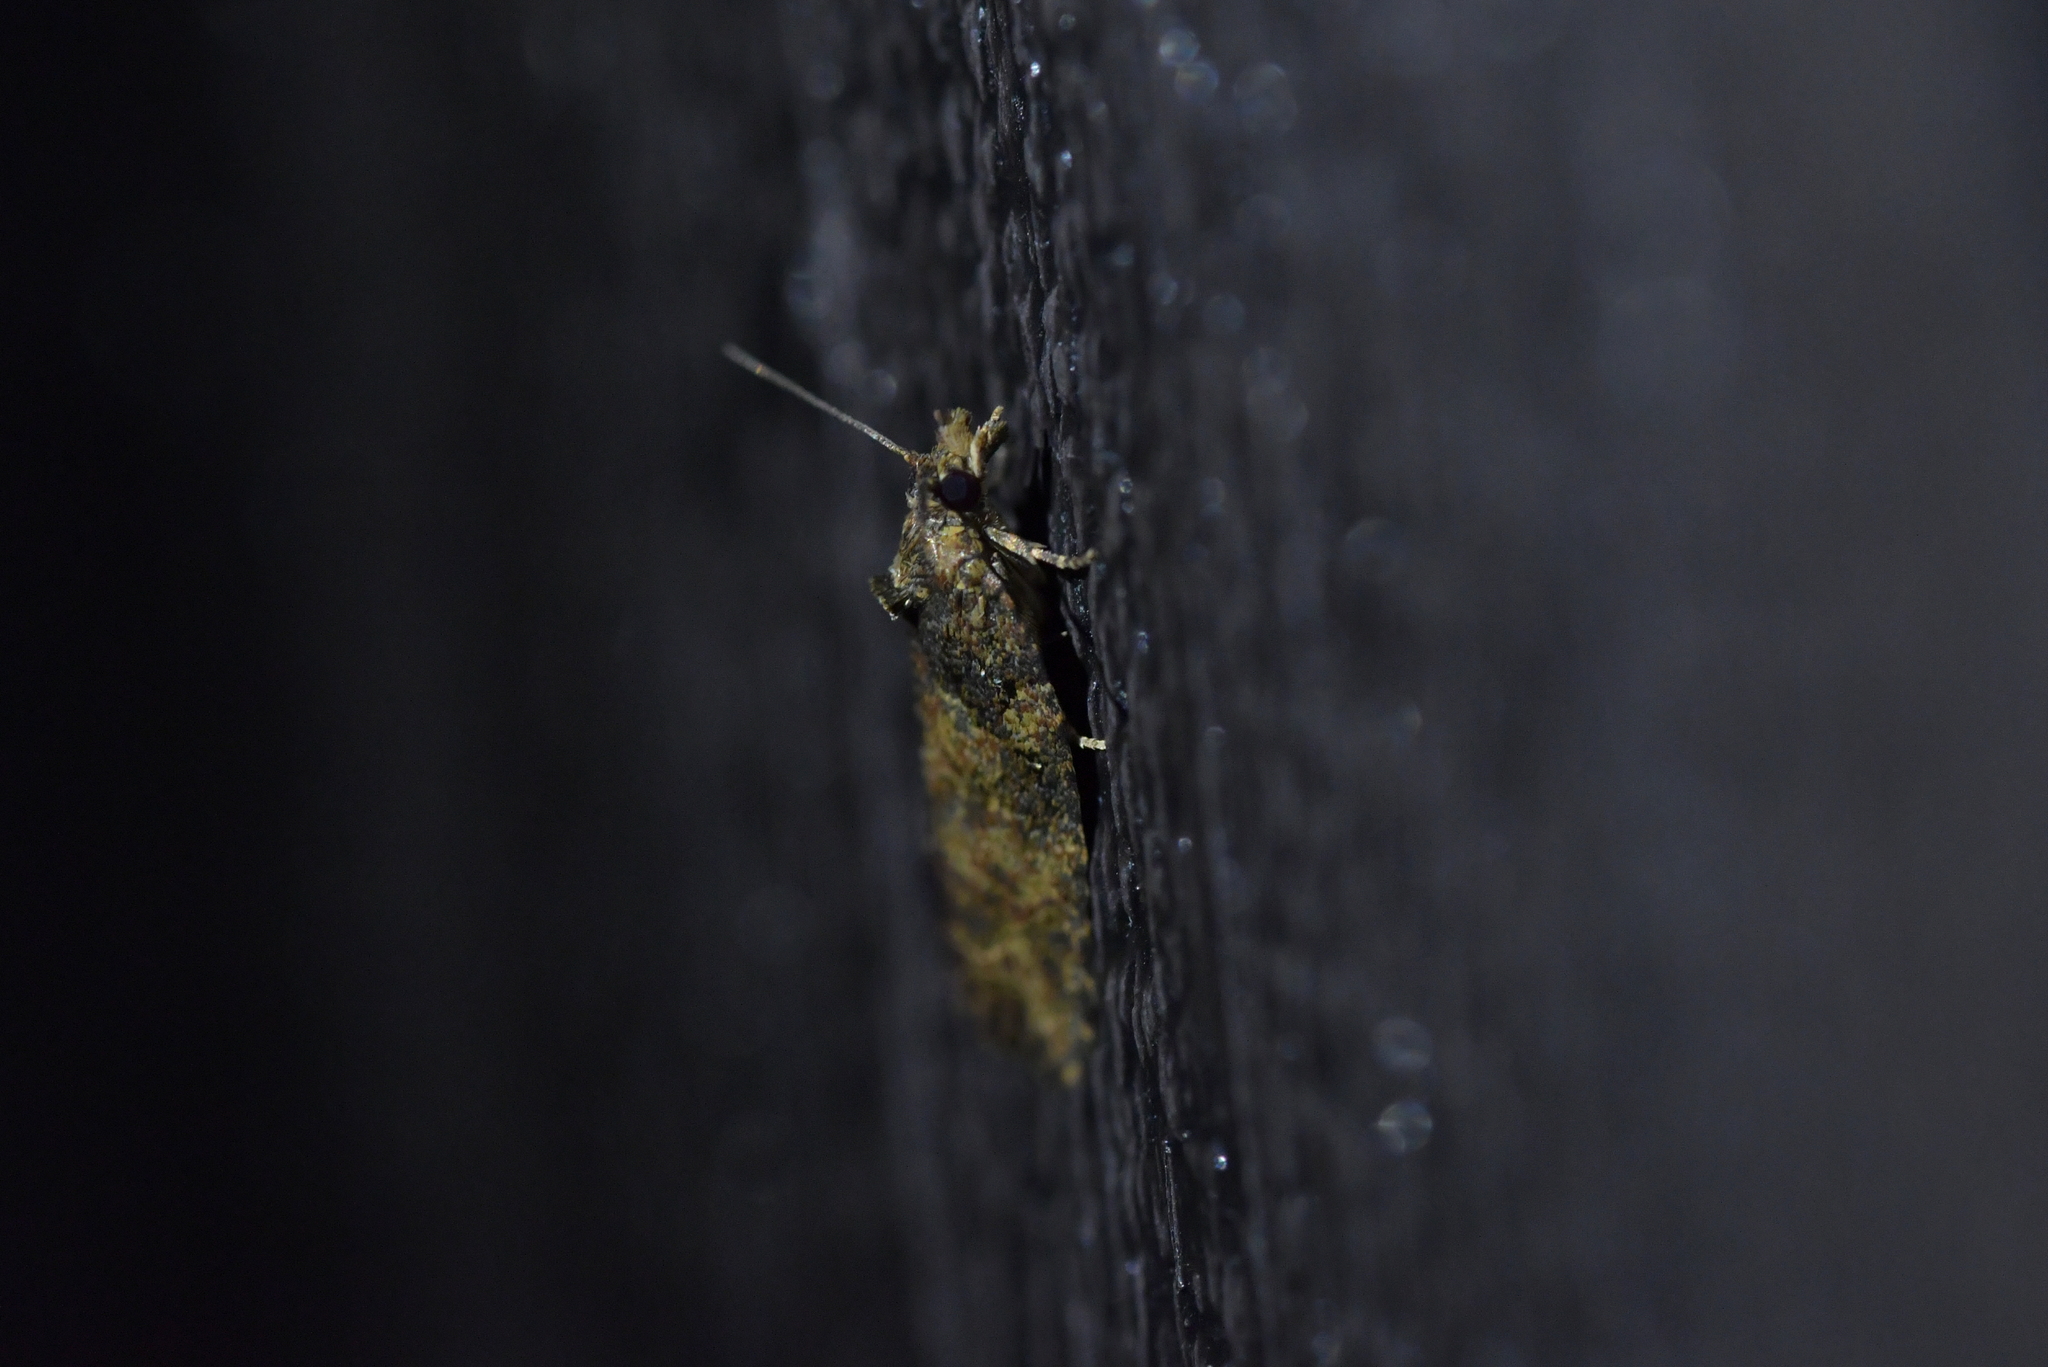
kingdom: Animalia
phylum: Arthropoda
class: Insecta
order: Lepidoptera
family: Tortricidae
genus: Capua
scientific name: Capua intractana
